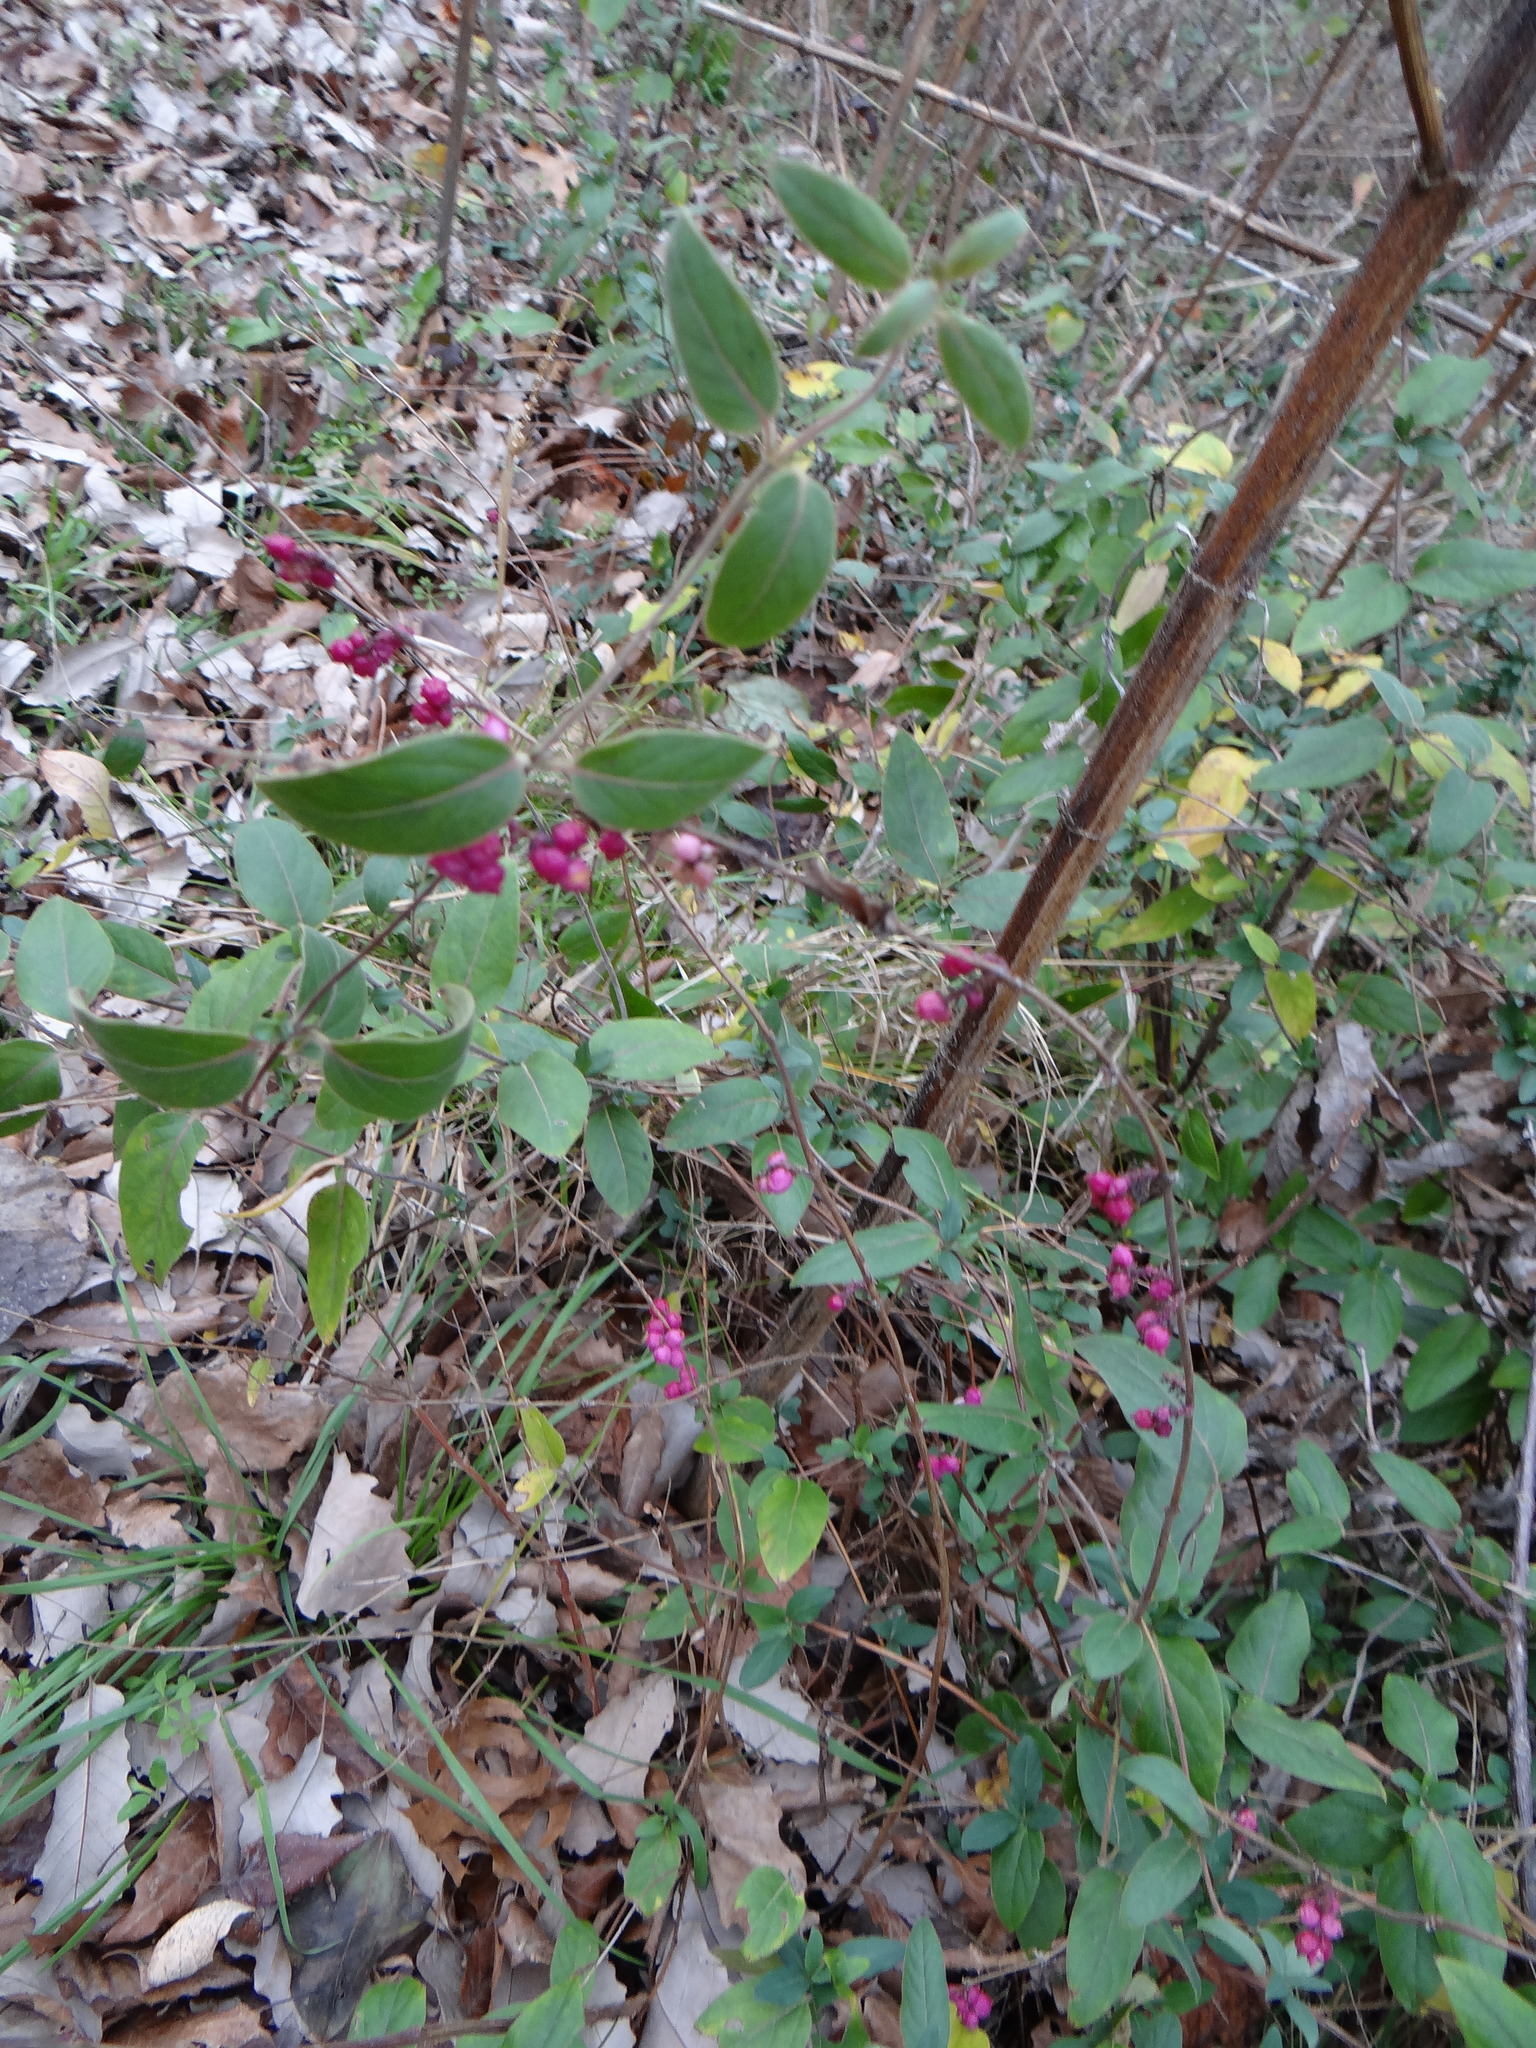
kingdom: Plantae
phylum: Tracheophyta
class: Magnoliopsida
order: Dipsacales
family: Caprifoliaceae
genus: Symphoricarpos
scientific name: Symphoricarpos orbiculatus
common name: Coralberry
